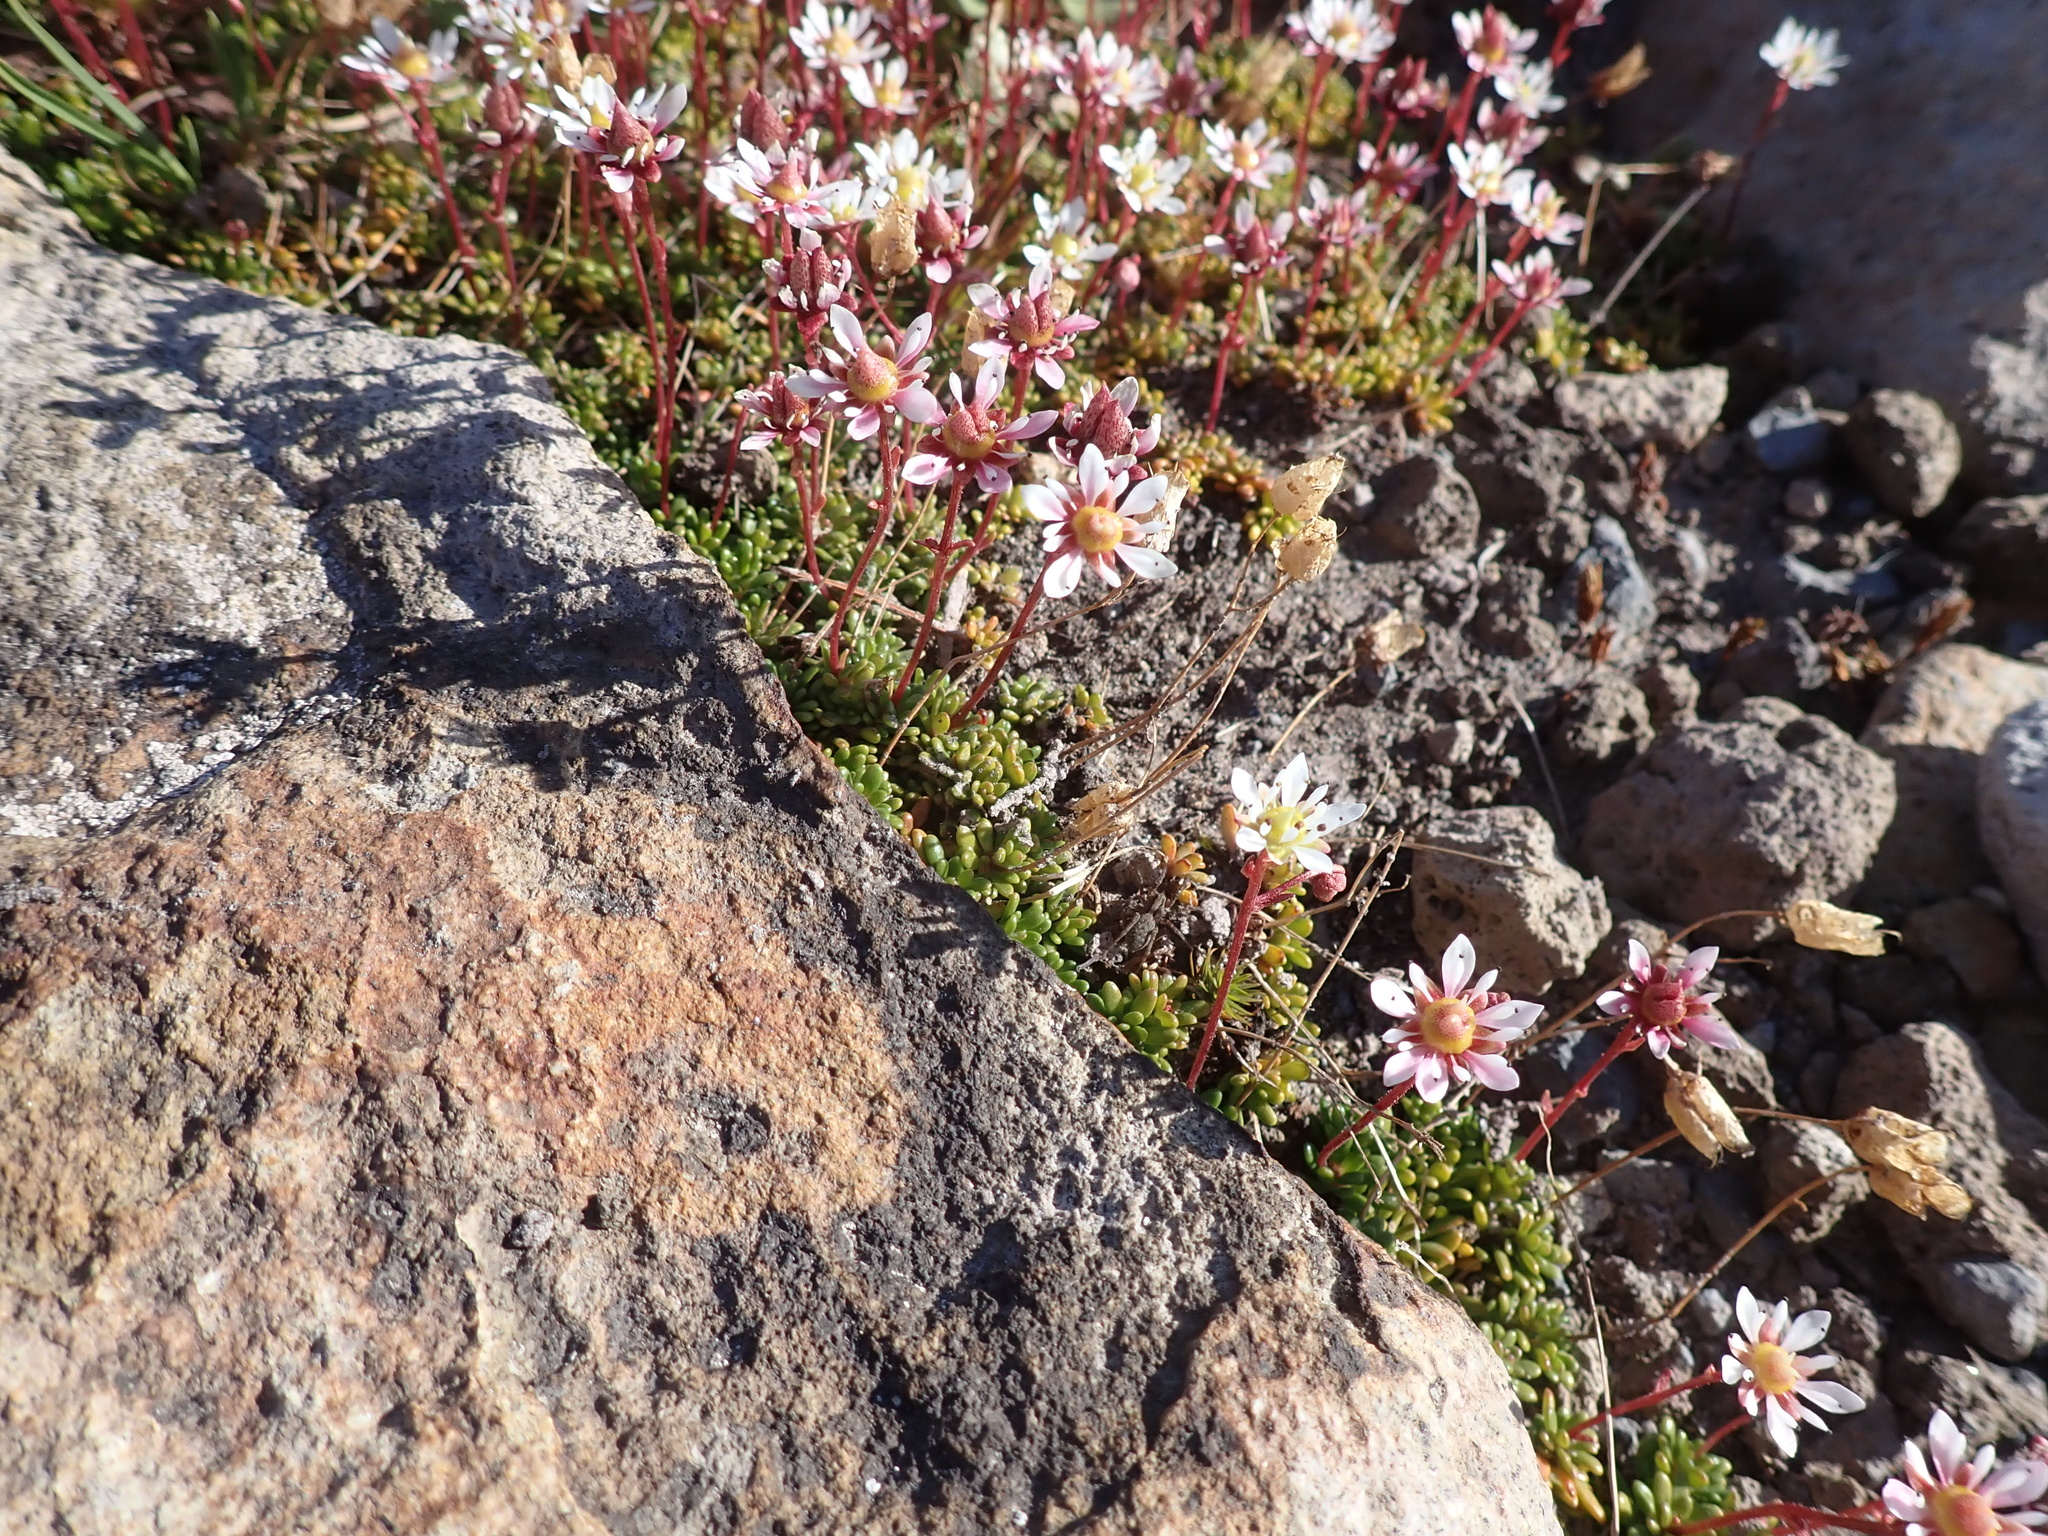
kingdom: Plantae
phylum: Tracheophyta
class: Magnoliopsida
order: Saxifragales
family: Saxifragaceae
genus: Micranthes
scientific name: Micranthes tolmiei
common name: Tolmie's saxifrage
